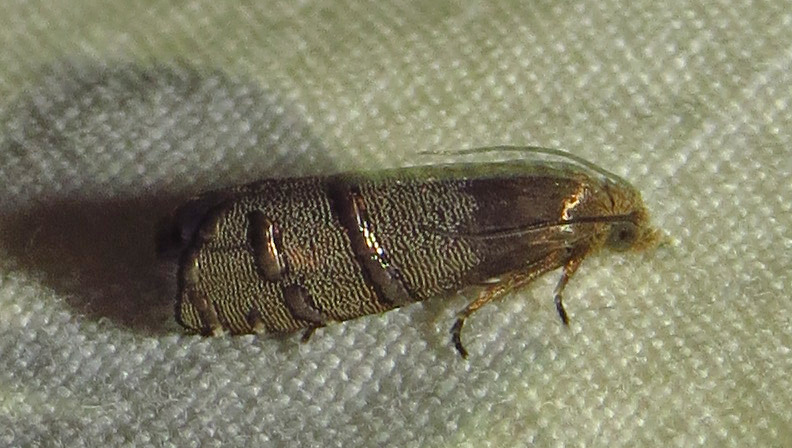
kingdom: Animalia
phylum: Arthropoda
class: Insecta
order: Lepidoptera
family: Tortricidae
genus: Cydia
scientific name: Cydia toreuta
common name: Eastern pine seedworm moth
